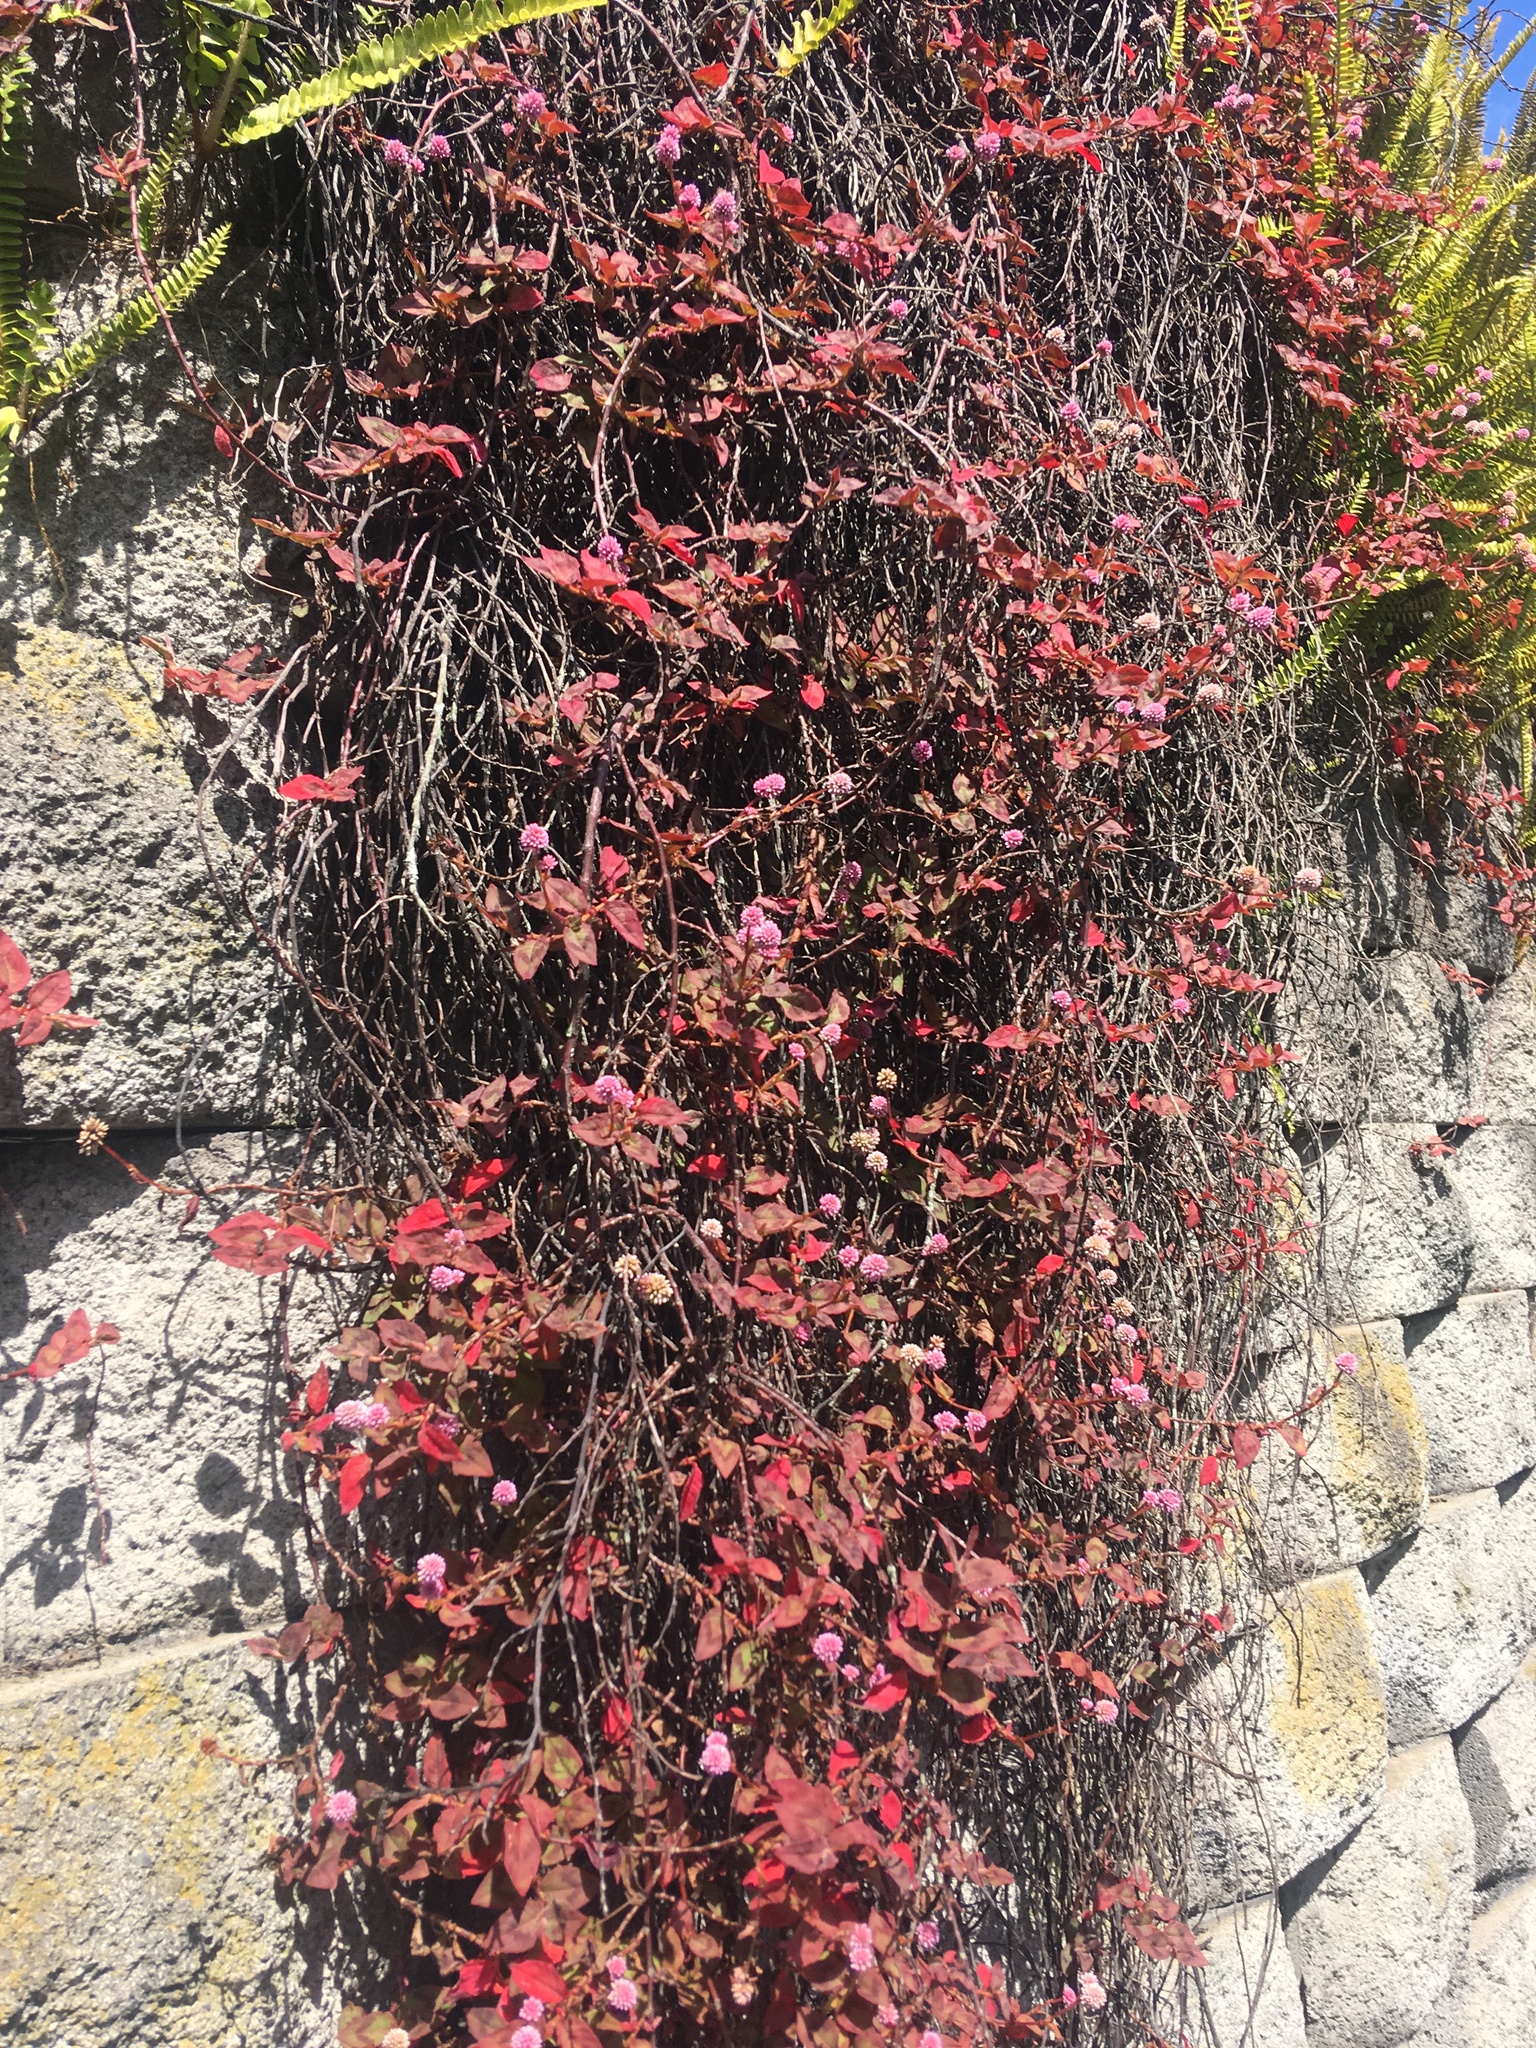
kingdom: Plantae
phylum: Tracheophyta
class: Magnoliopsida
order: Caryophyllales
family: Polygonaceae
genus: Persicaria
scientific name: Persicaria capitata
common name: Pinkhead smartweed
